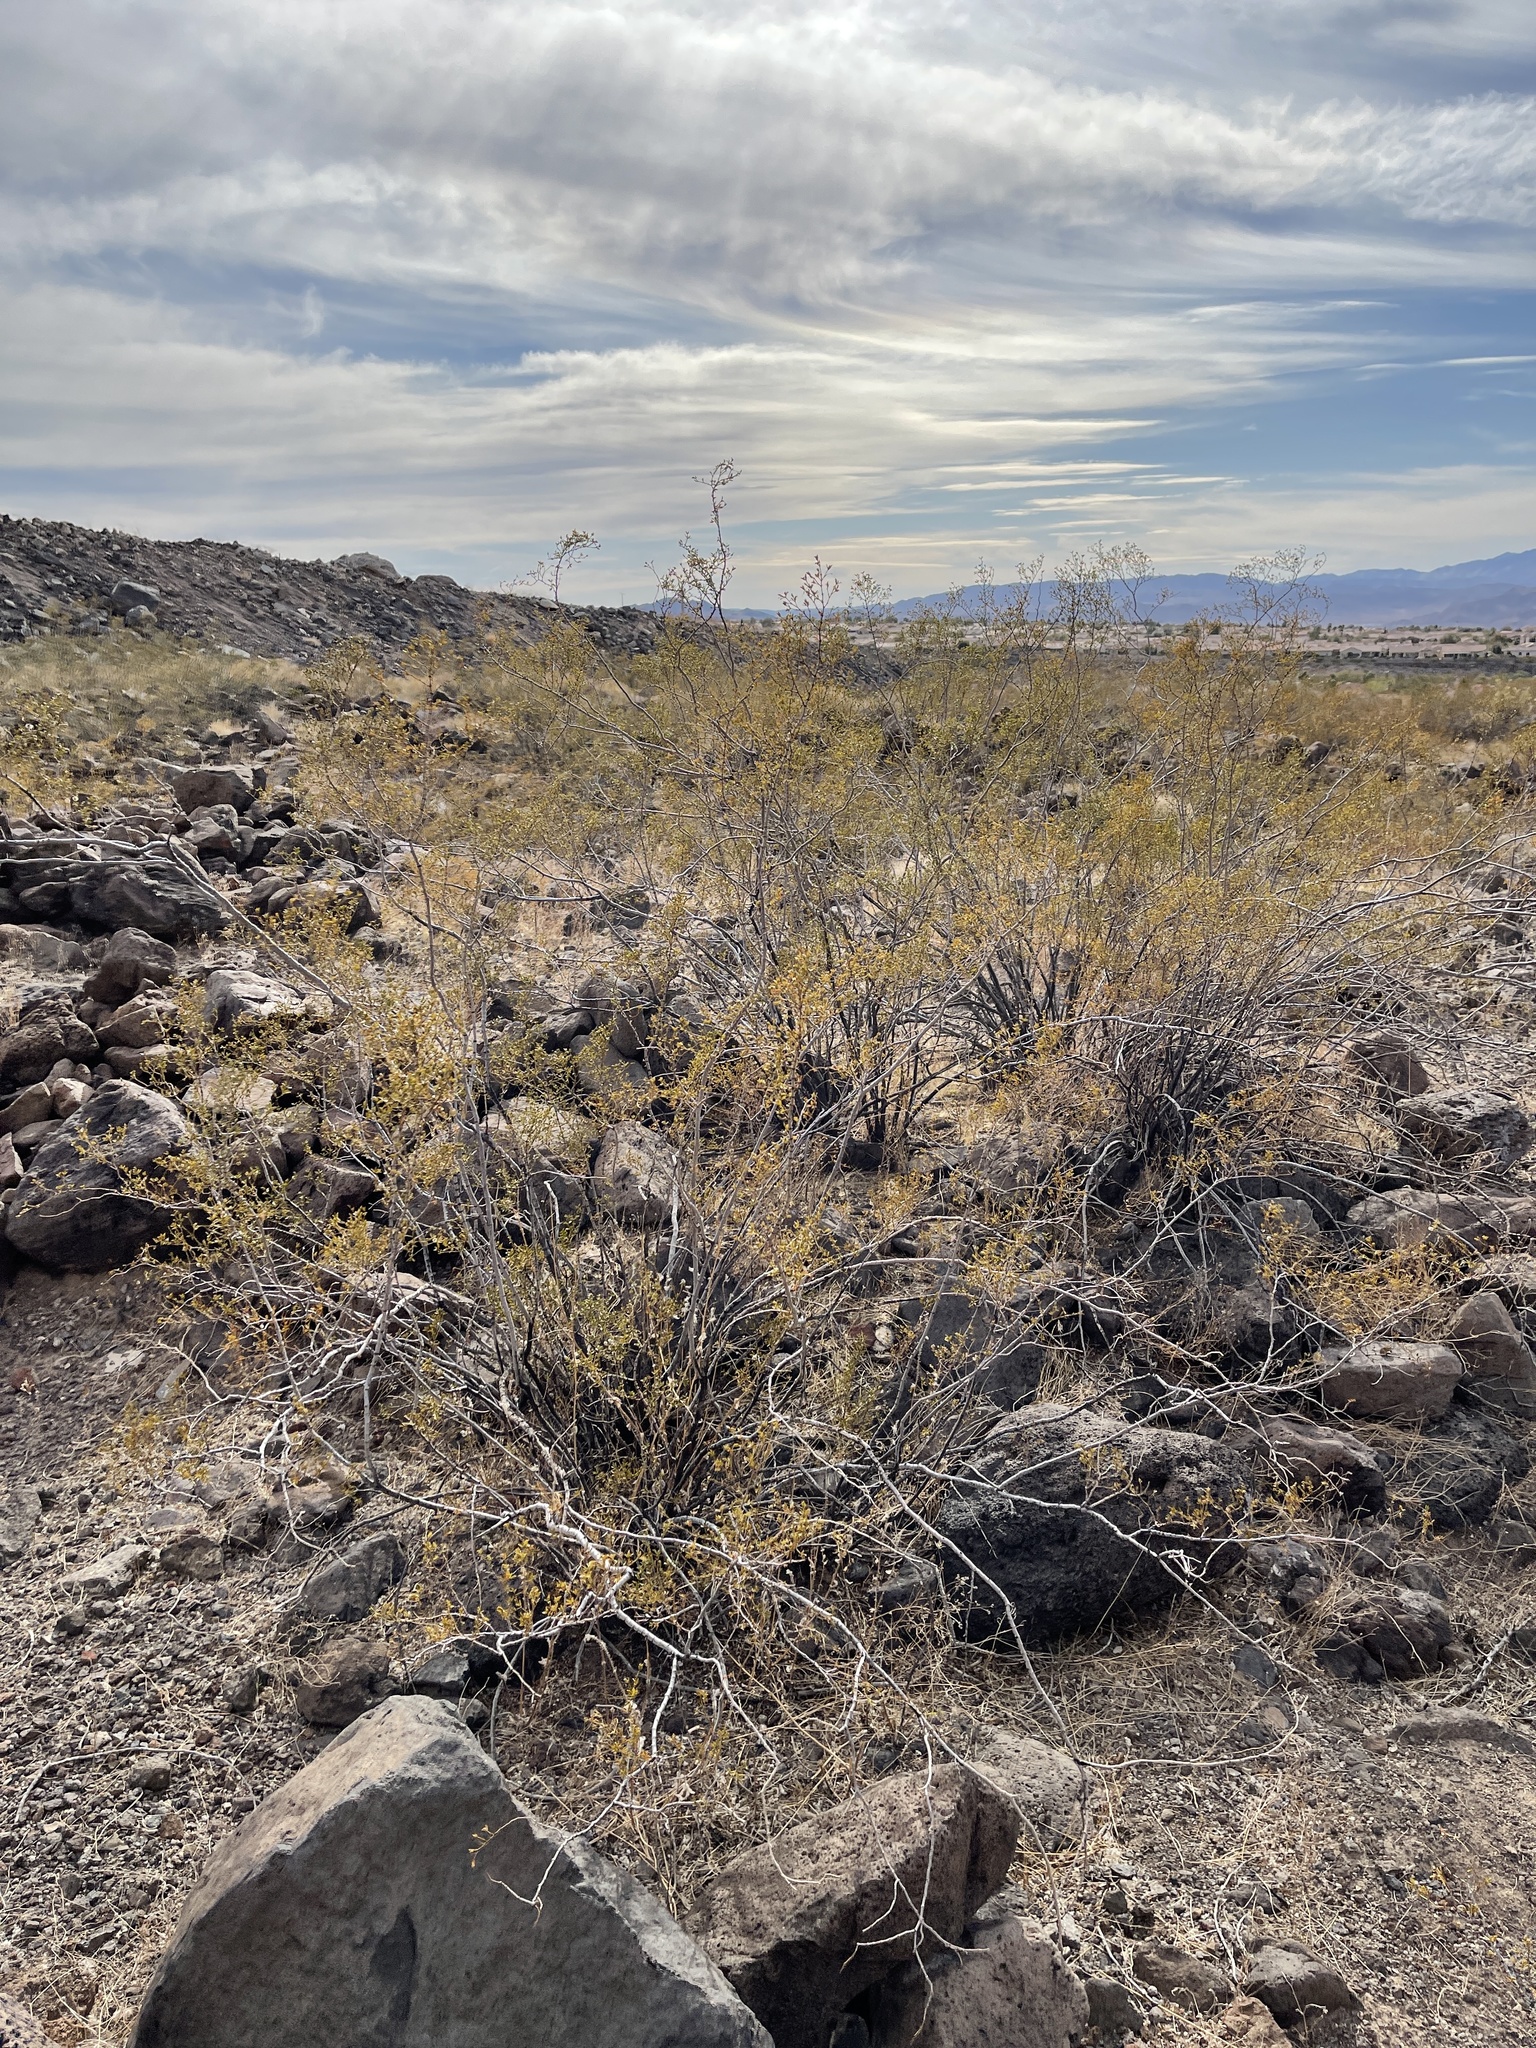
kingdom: Plantae
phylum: Tracheophyta
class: Magnoliopsida
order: Zygophyllales
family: Zygophyllaceae
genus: Larrea
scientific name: Larrea tridentata
